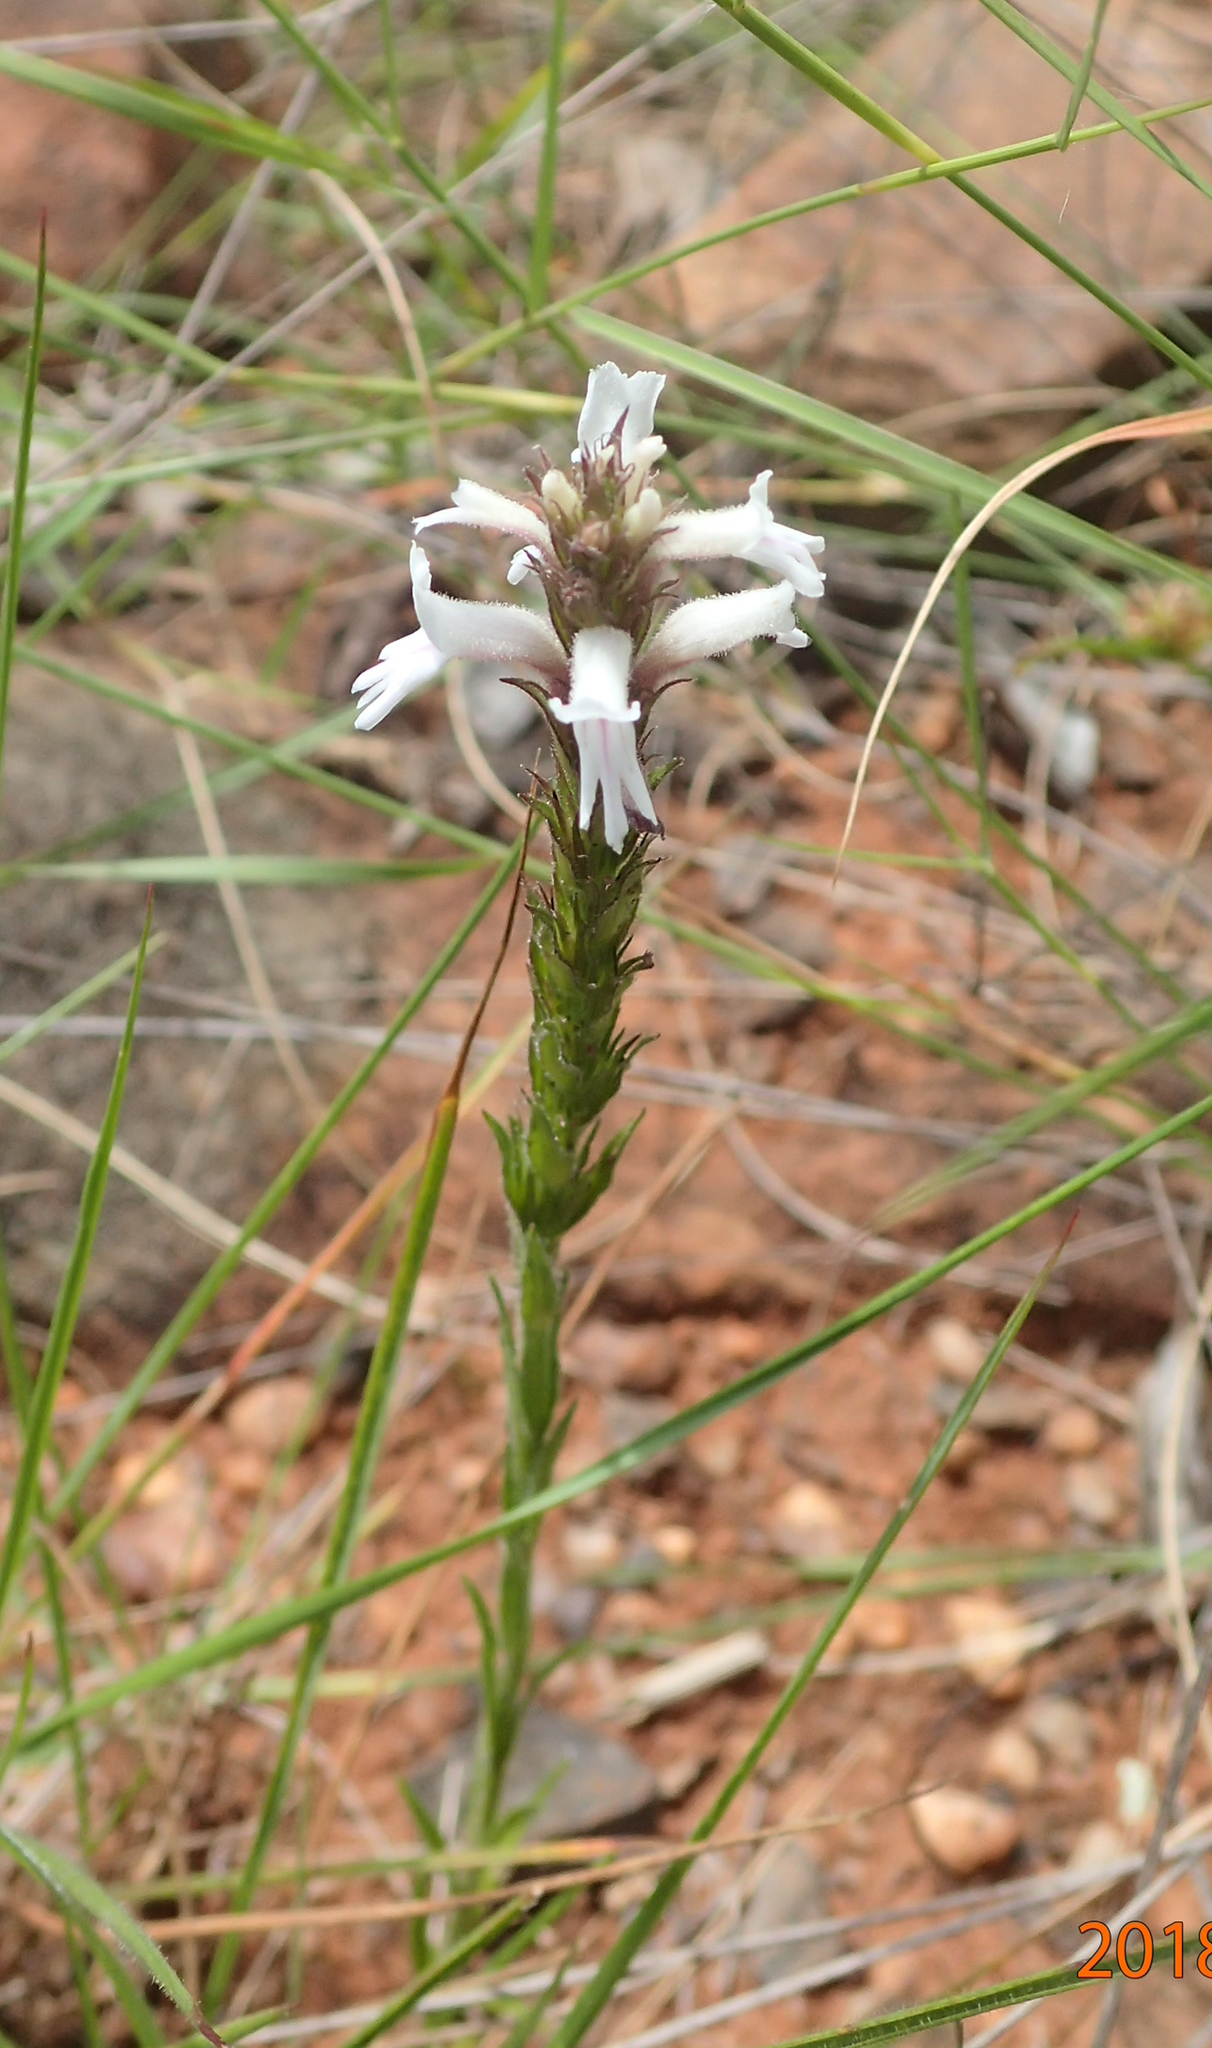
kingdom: Plantae
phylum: Tracheophyta
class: Magnoliopsida
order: Lamiales
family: Orobanchaceae
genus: Striga
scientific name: Striga bilabiata
